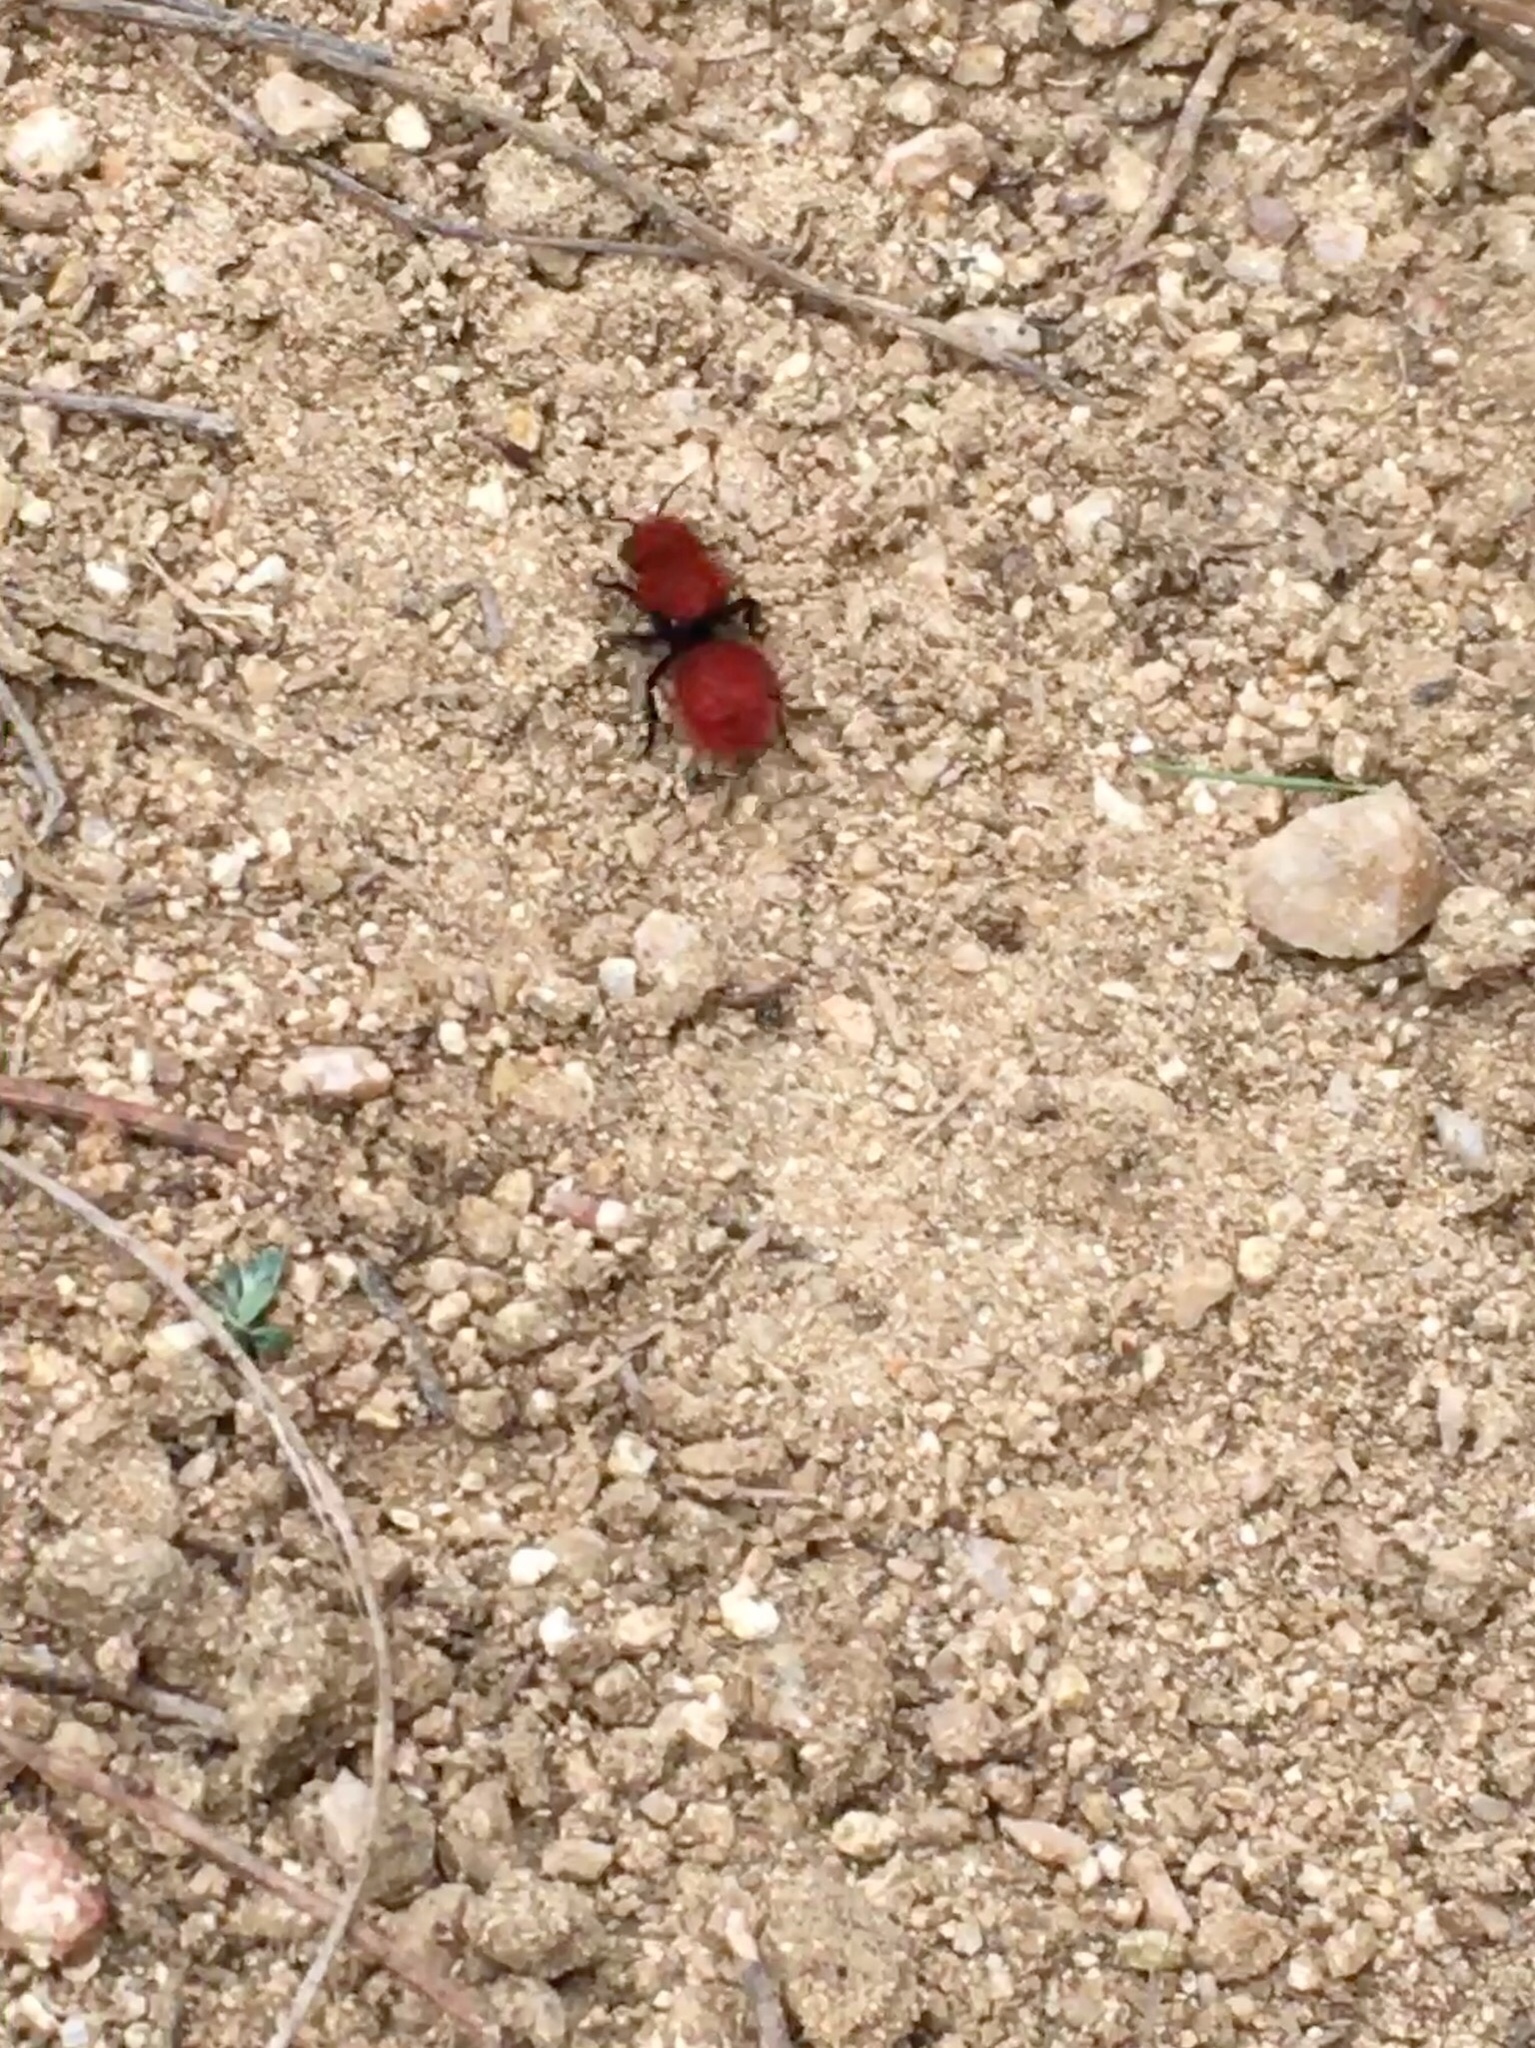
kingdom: Animalia
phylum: Arthropoda
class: Insecta
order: Hymenoptera
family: Mutillidae
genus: Dasymutilla
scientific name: Dasymutilla
